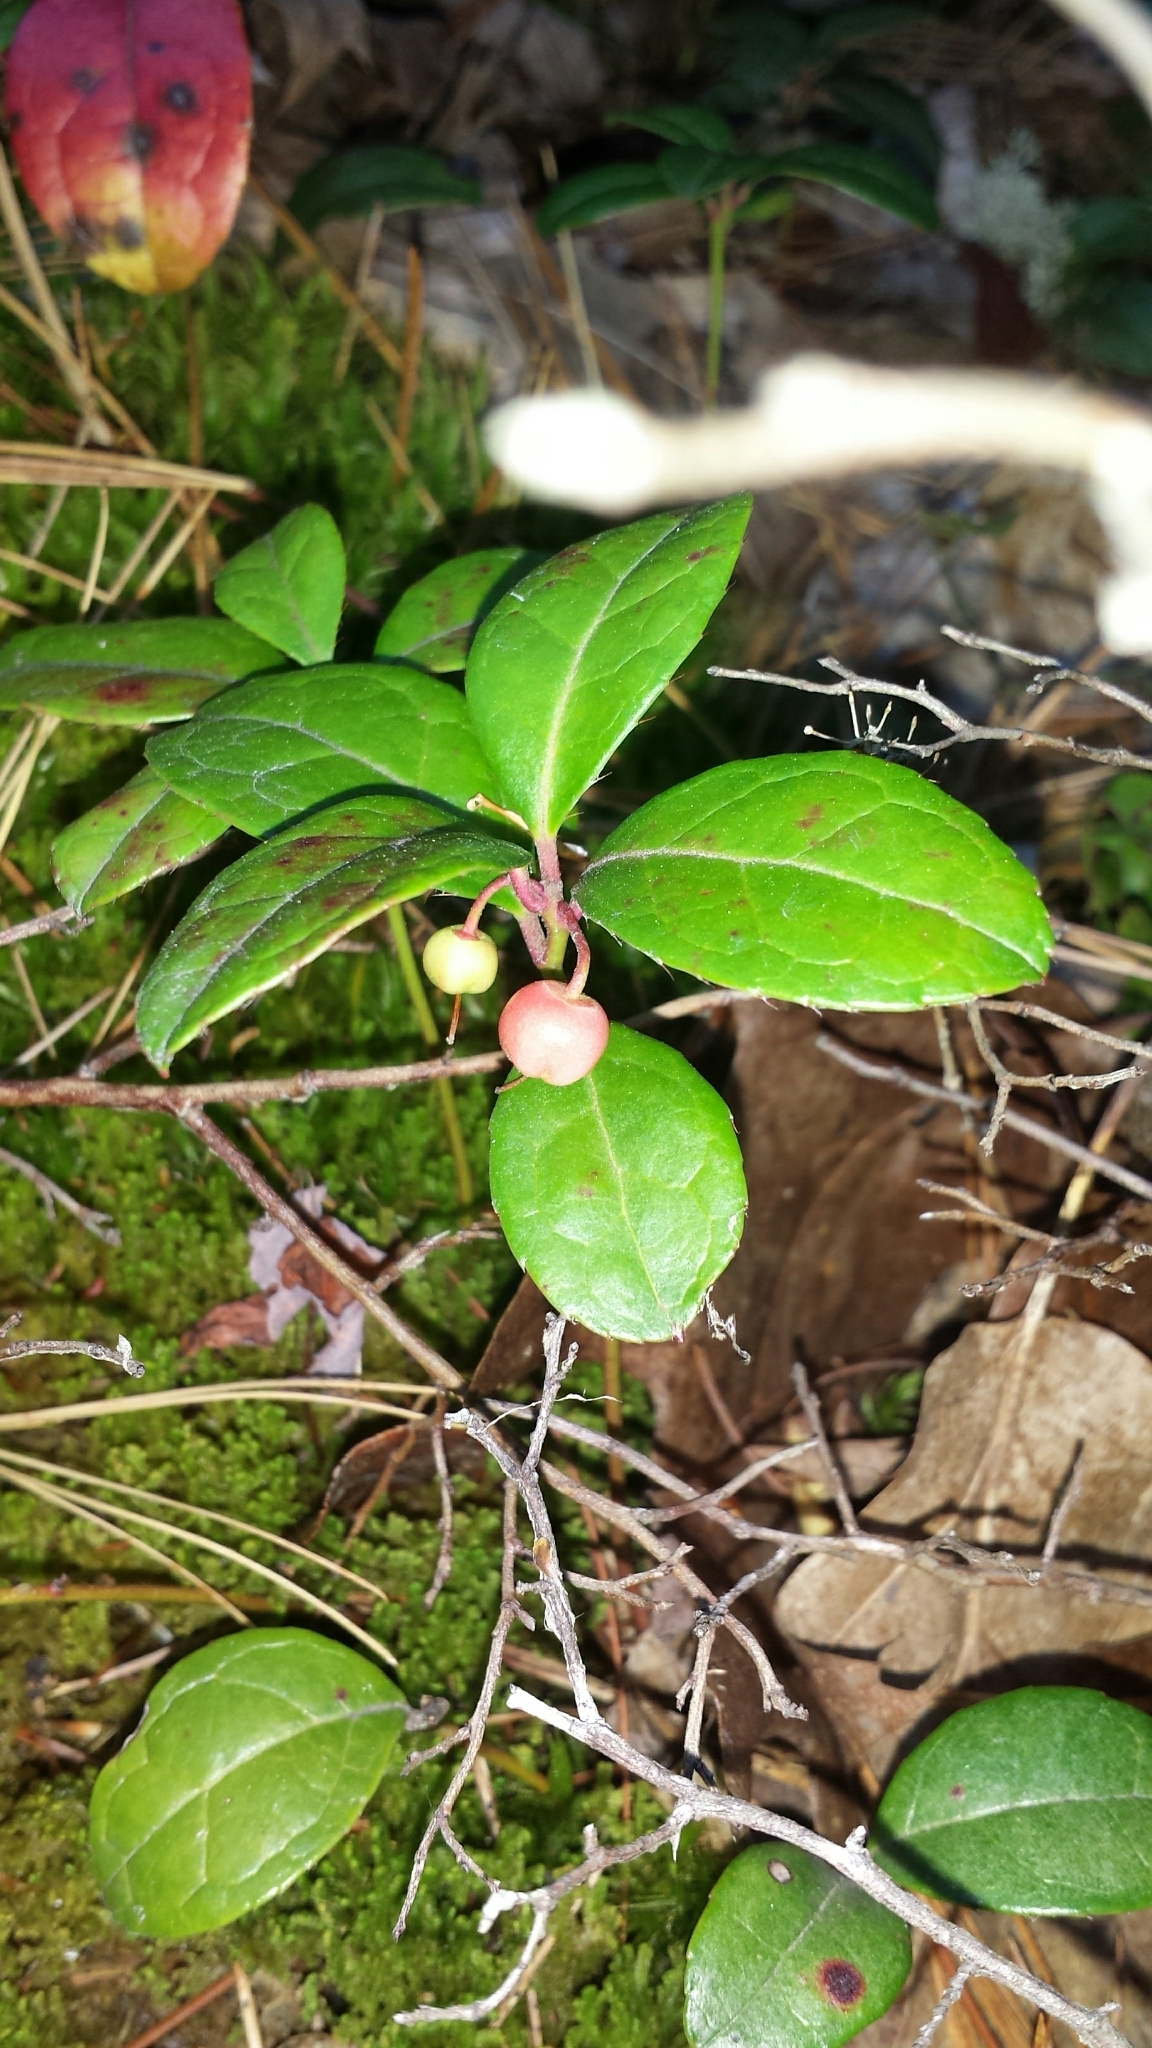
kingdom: Plantae
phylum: Tracheophyta
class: Magnoliopsida
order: Ericales
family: Ericaceae
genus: Gaultheria
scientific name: Gaultheria procumbens
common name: Checkerberry
